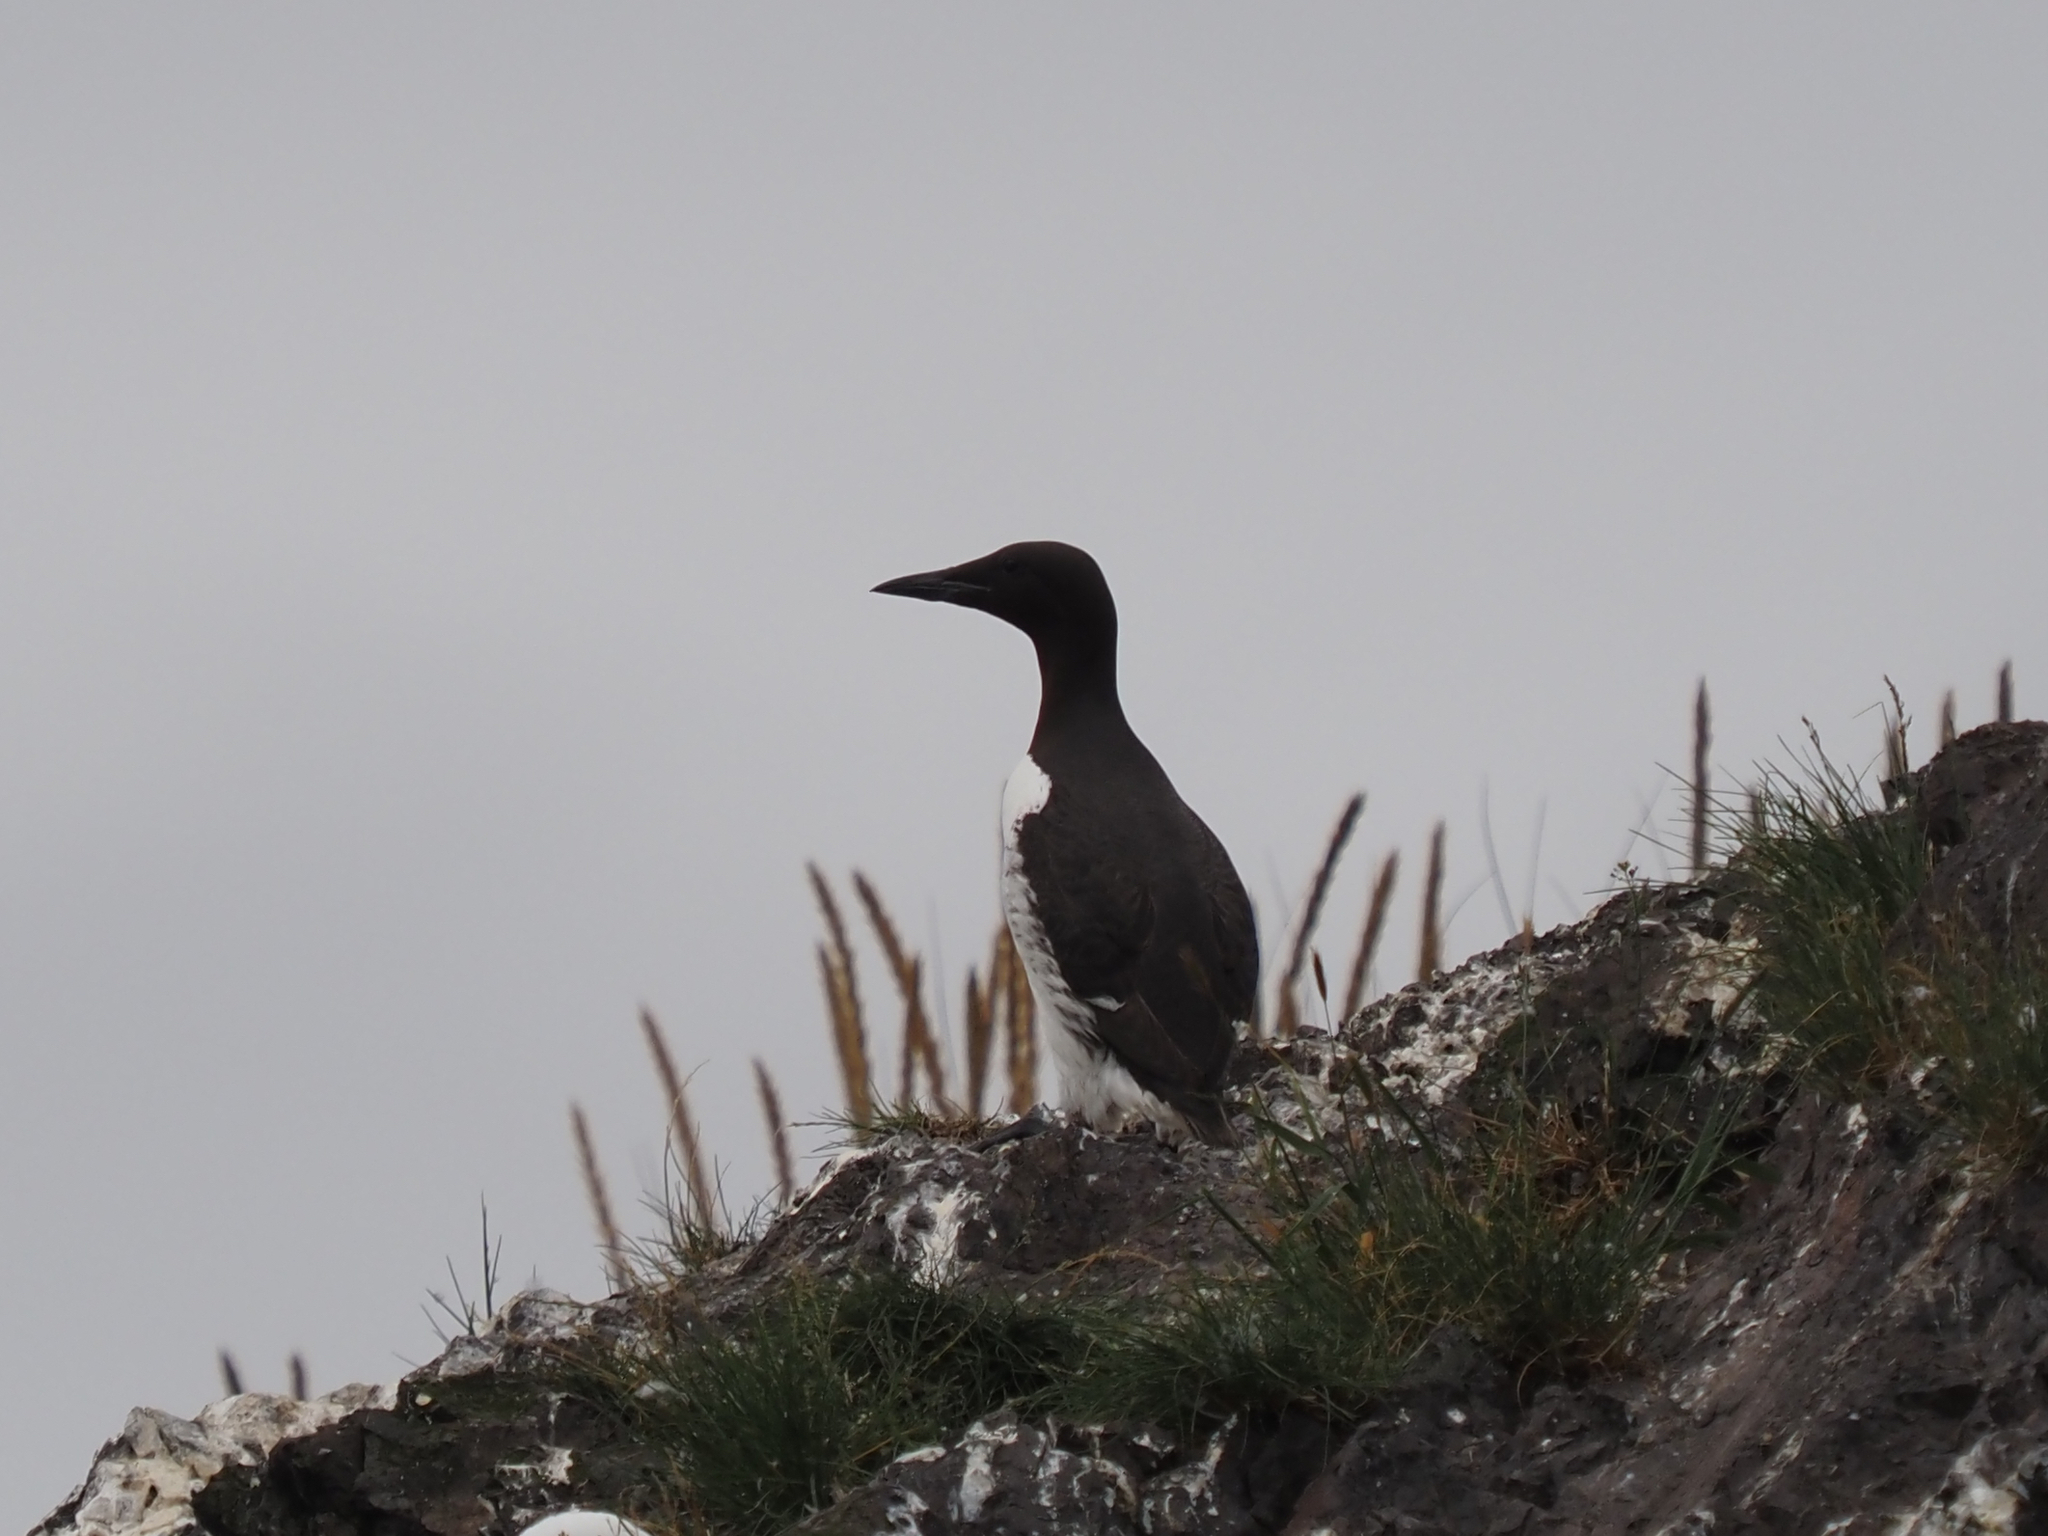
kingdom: Animalia
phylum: Chordata
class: Aves
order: Charadriiformes
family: Alcidae
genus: Uria
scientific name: Uria aalge
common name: Common murre
